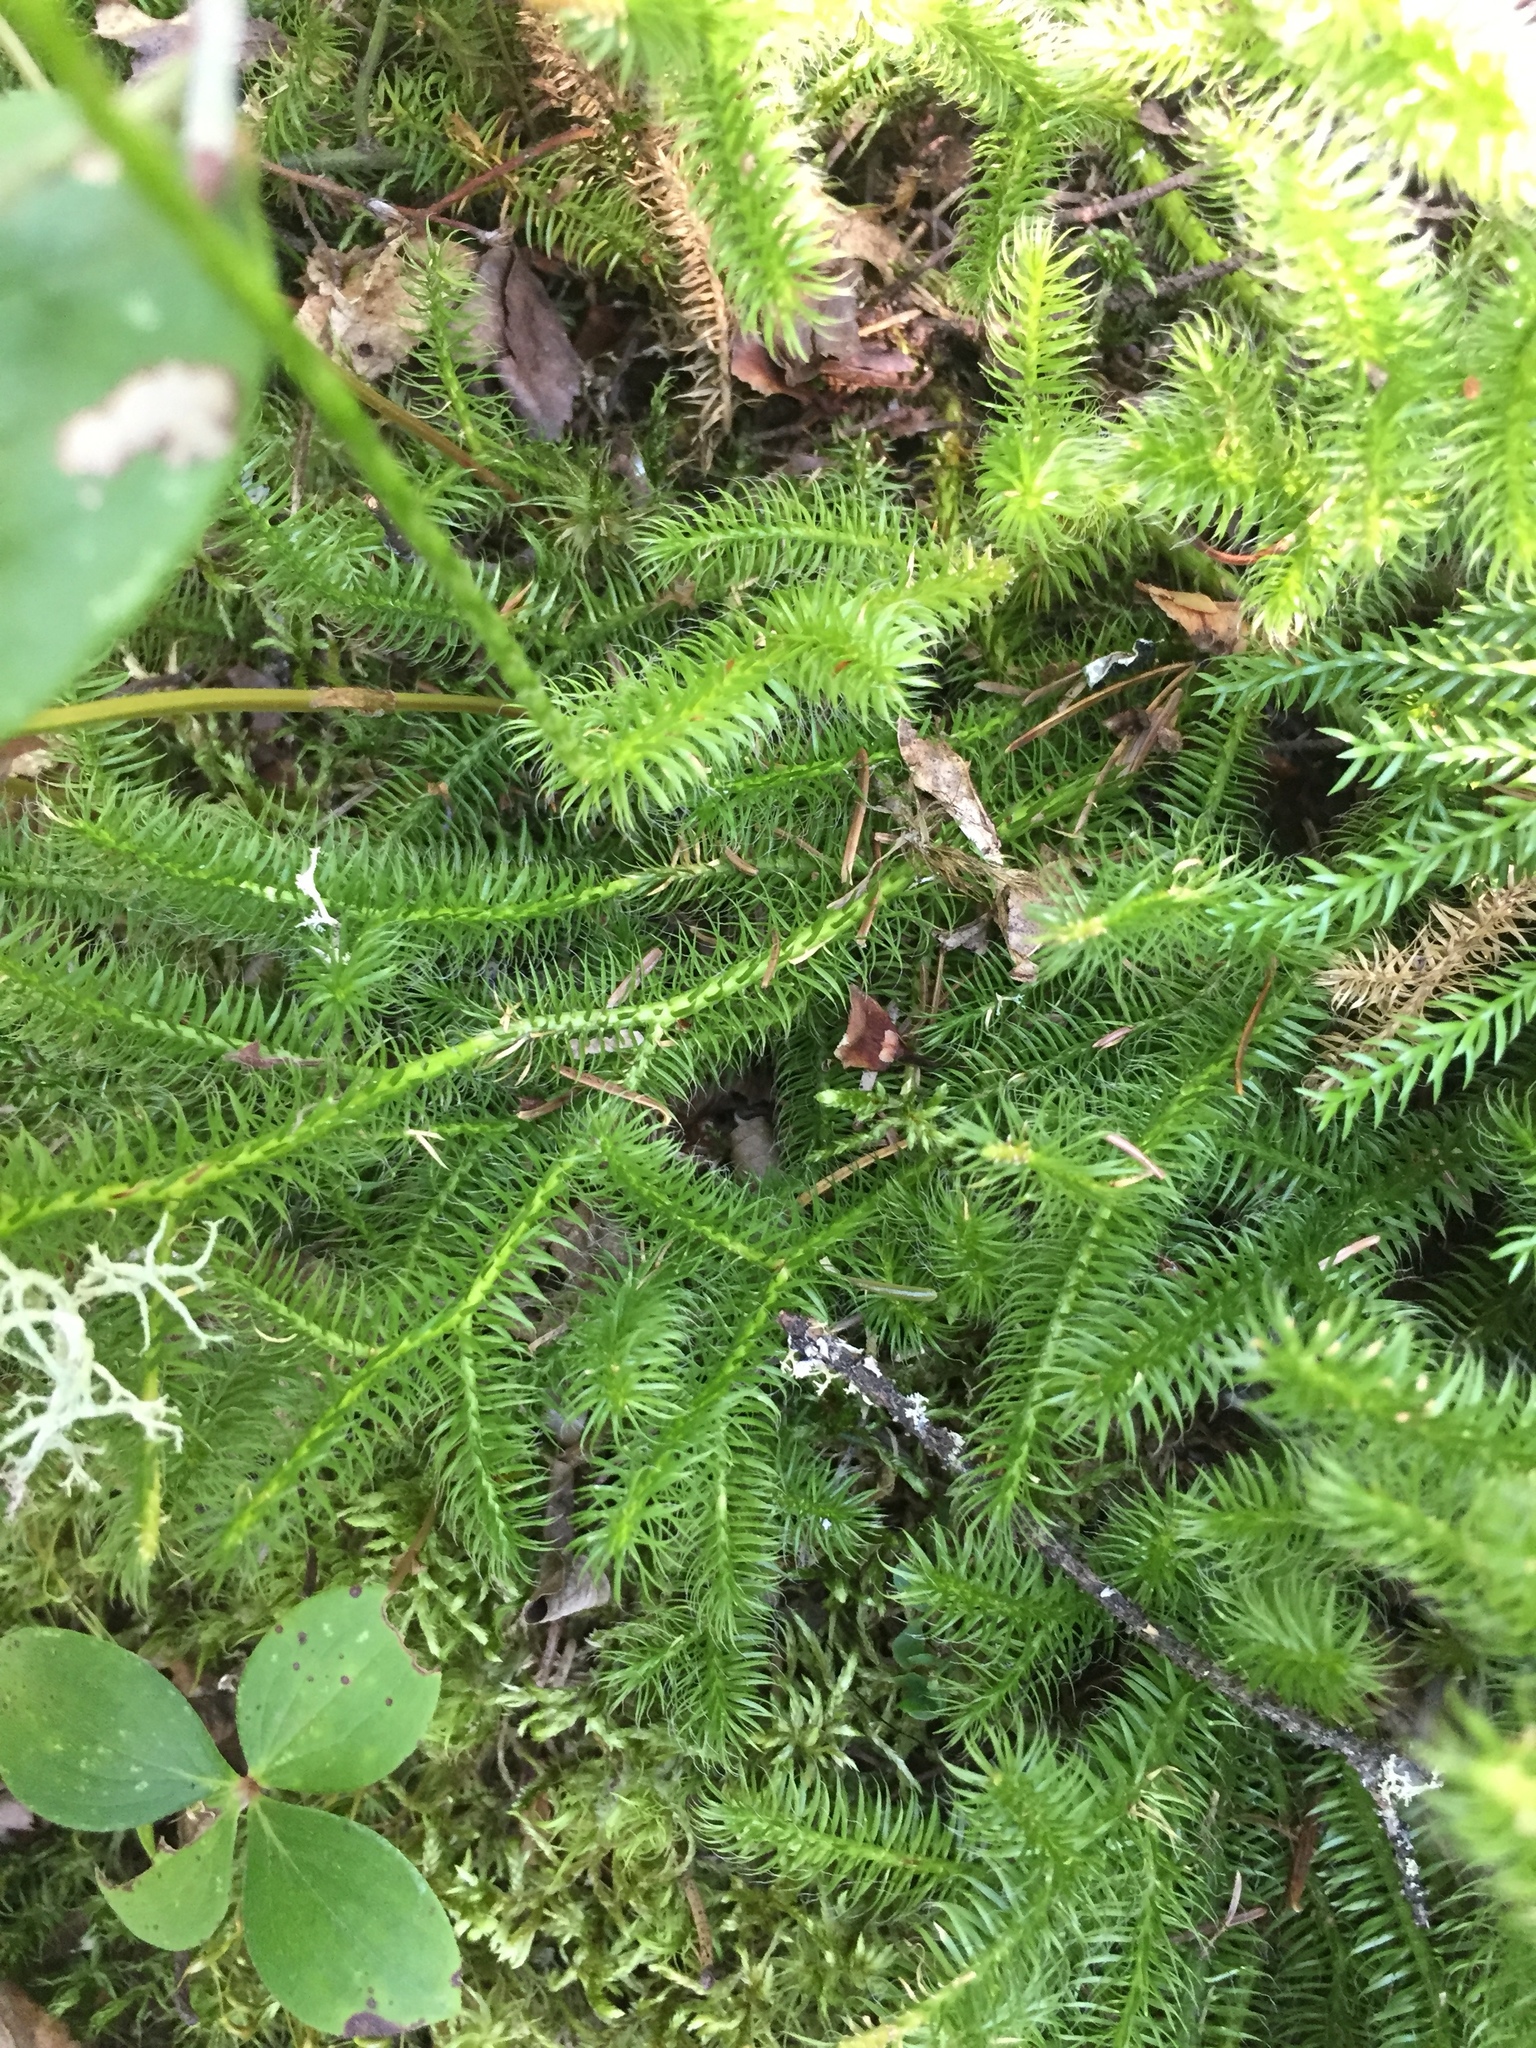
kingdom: Plantae
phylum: Tracheophyta
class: Lycopodiopsida
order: Lycopodiales
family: Lycopodiaceae
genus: Lycopodium
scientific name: Lycopodium clavatum
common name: Stag's-horn clubmoss
